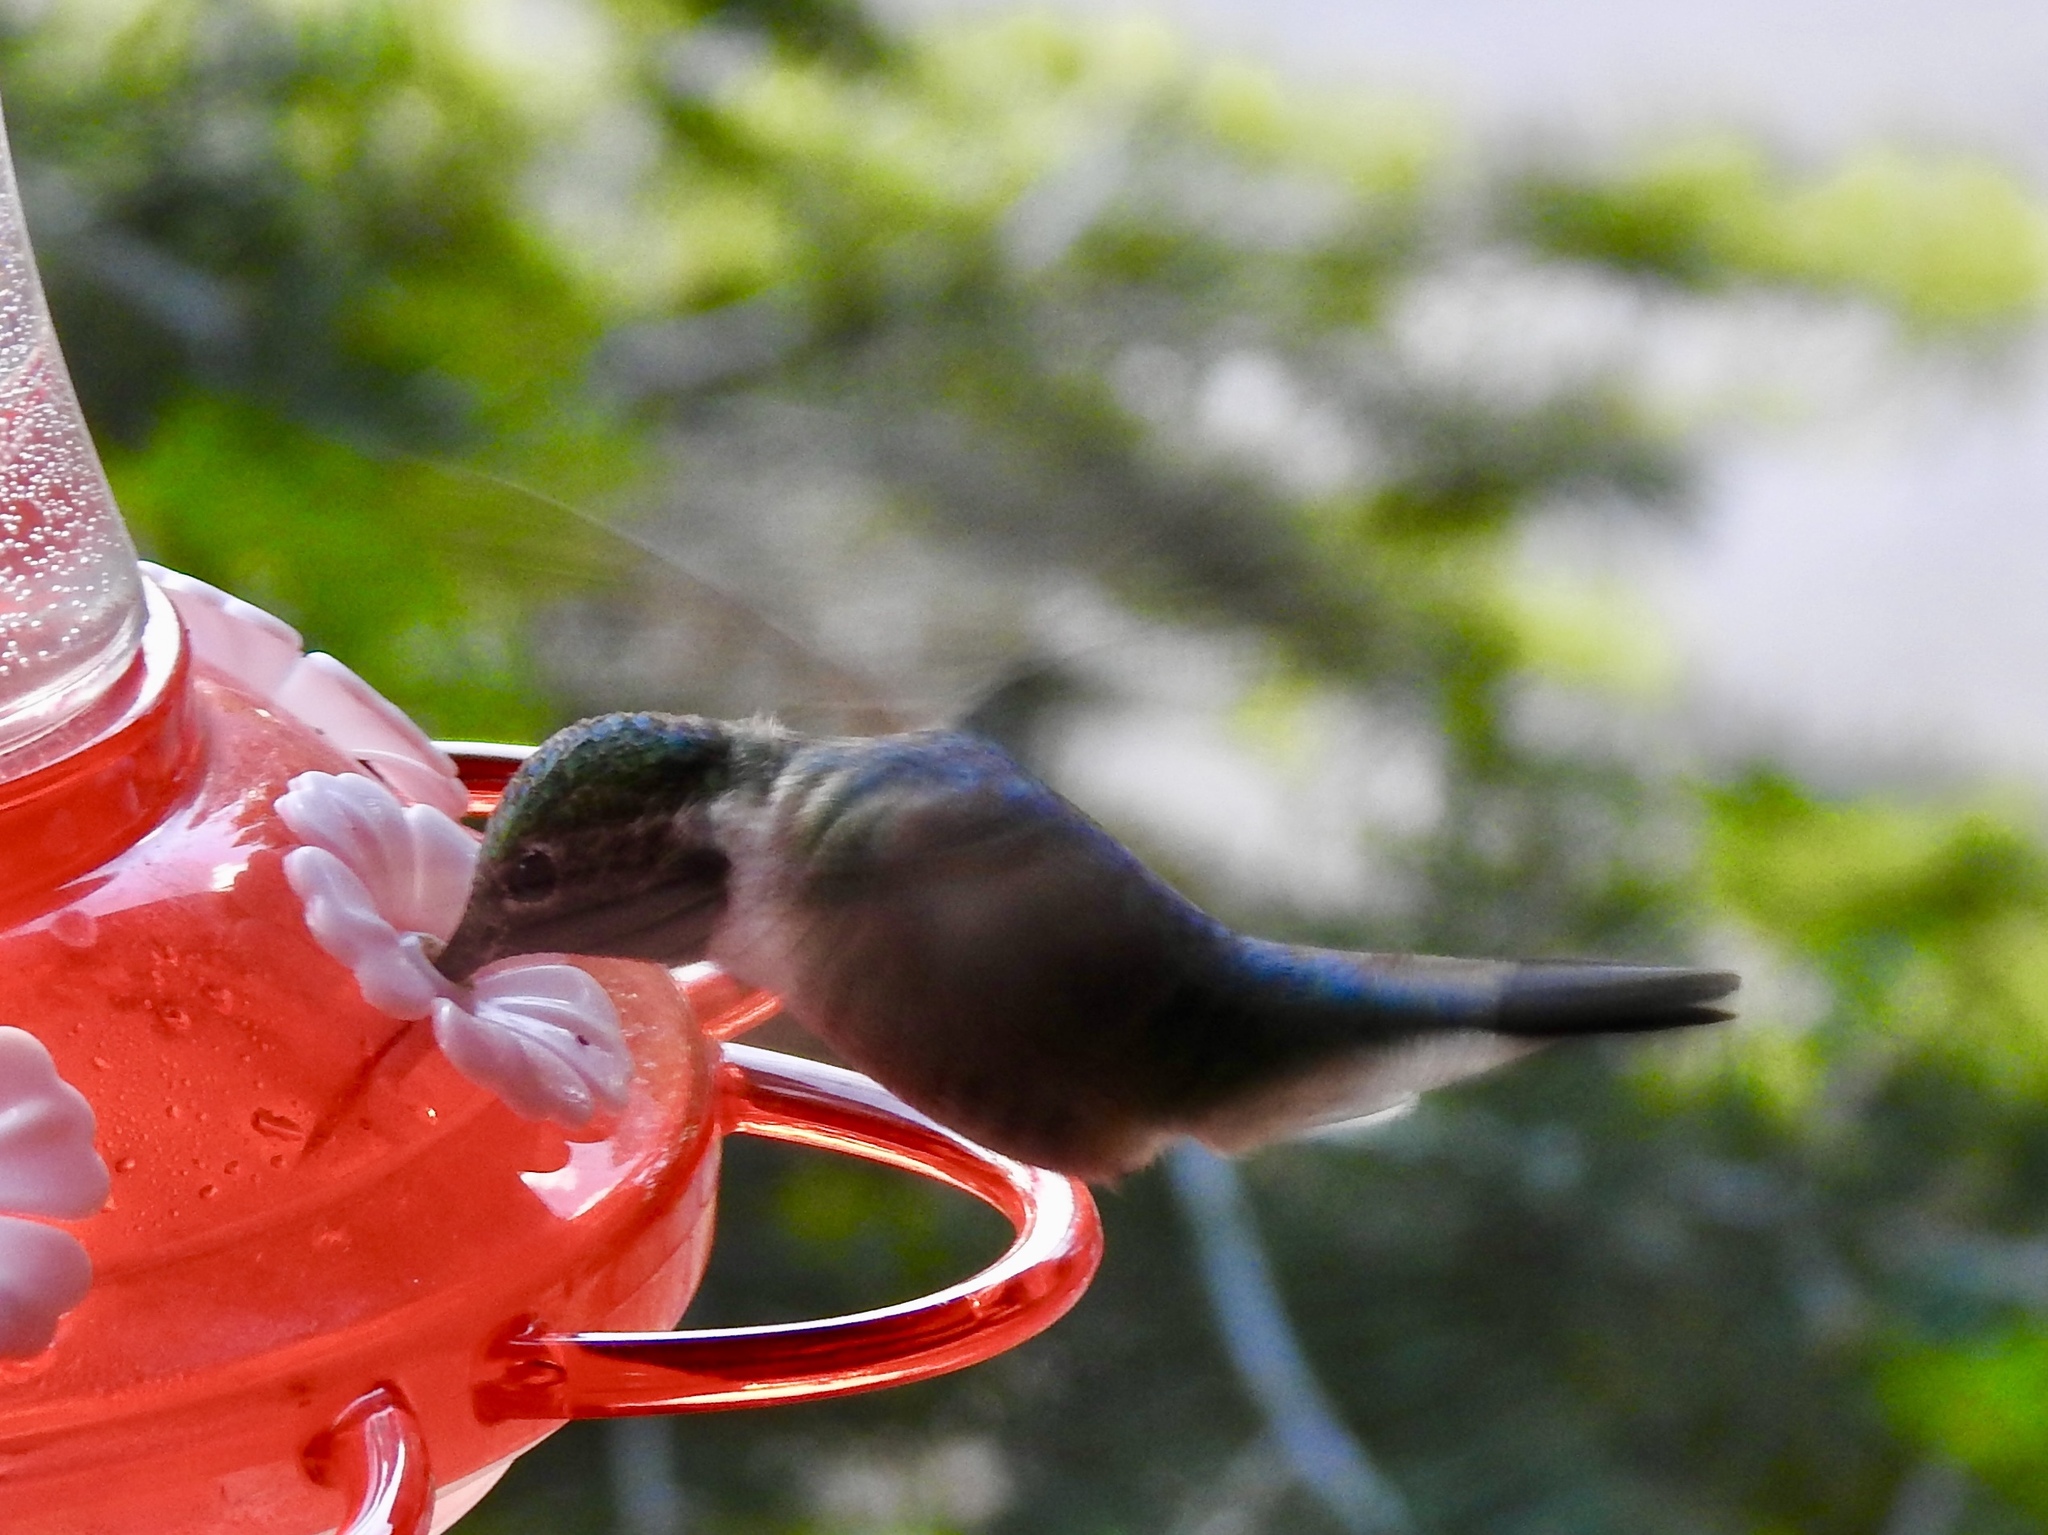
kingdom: Animalia
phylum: Chordata
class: Aves
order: Apodiformes
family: Trochilidae
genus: Selasphorus
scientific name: Selasphorus platycercus
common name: Broad-tailed hummingbird
